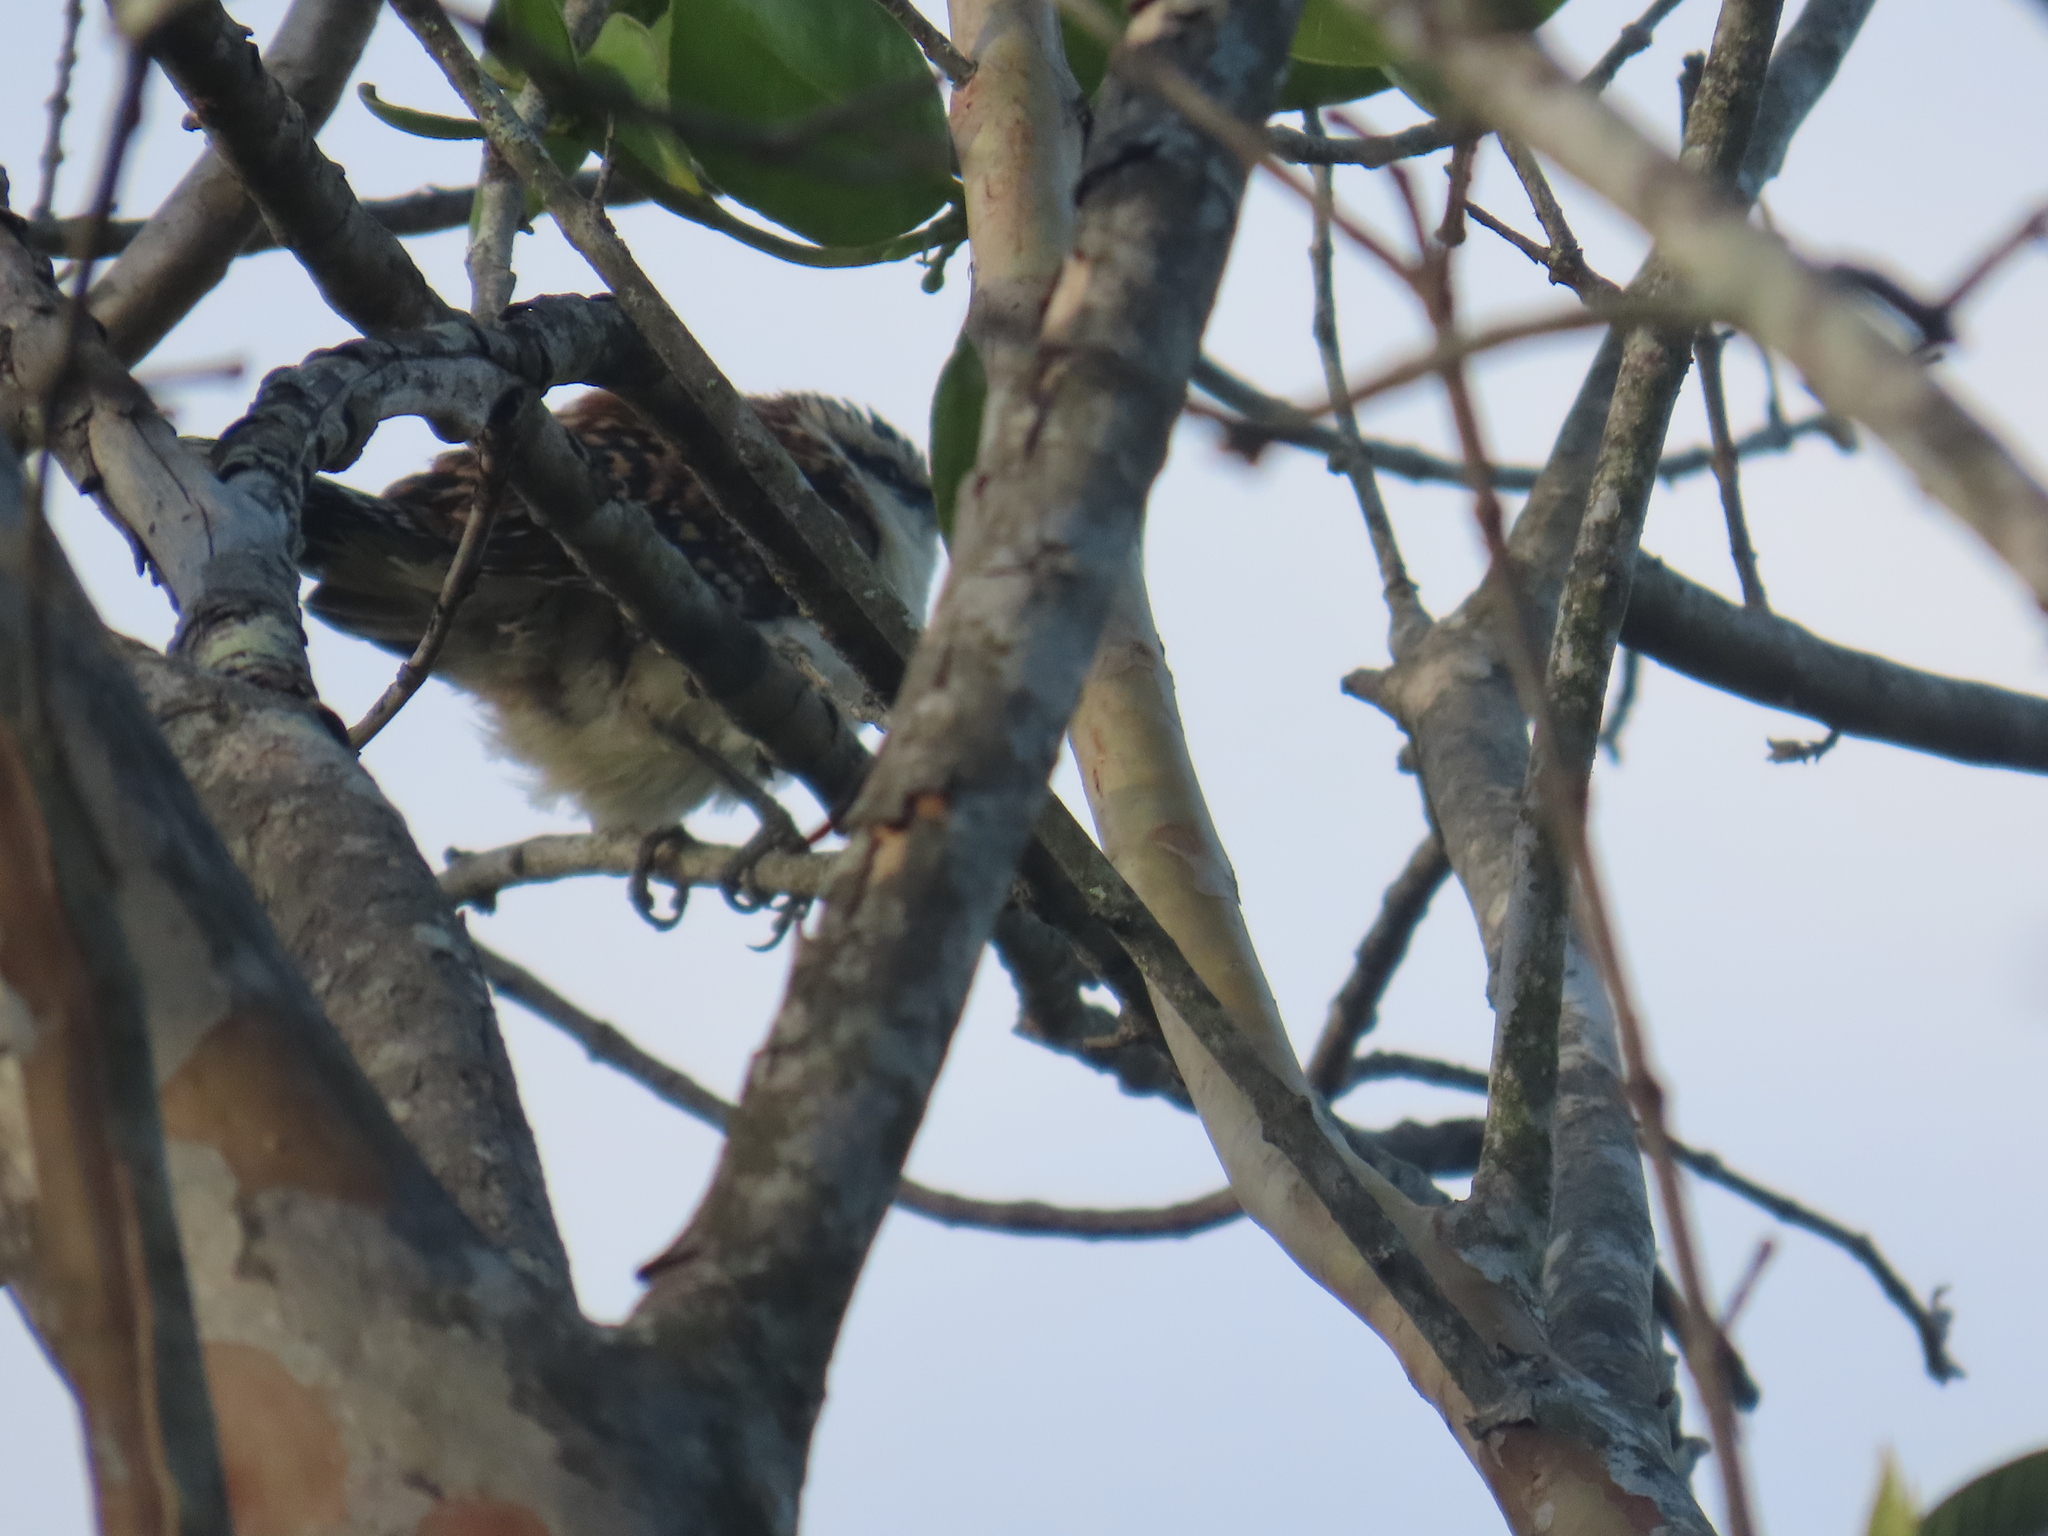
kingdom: Animalia
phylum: Chordata
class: Aves
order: Passeriformes
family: Troglodytidae
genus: Campylorhynchus
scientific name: Campylorhynchus rufinucha
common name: Rufous-naped wren
